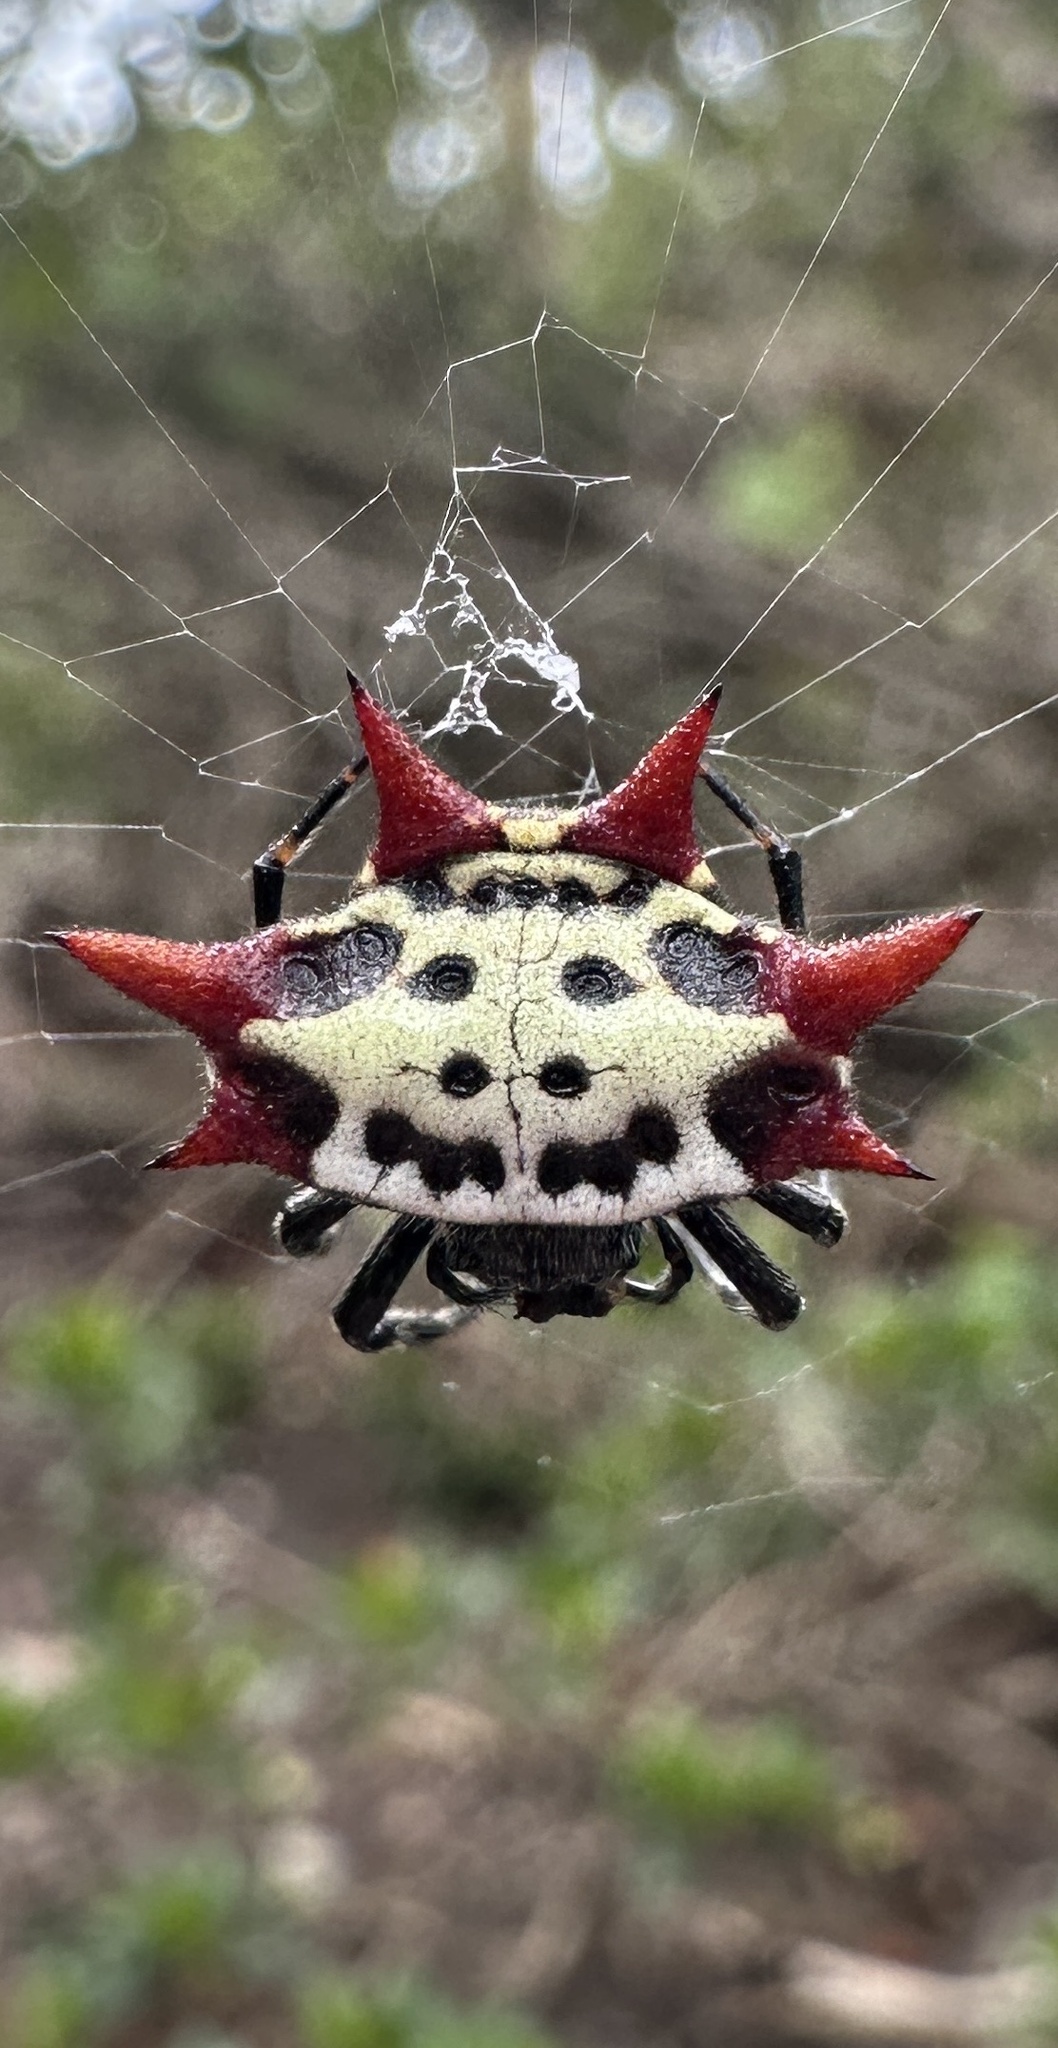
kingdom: Animalia
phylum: Arthropoda
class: Arachnida
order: Araneae
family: Araneidae
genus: Gasteracantha
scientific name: Gasteracantha cancriformis
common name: Orb weavers
